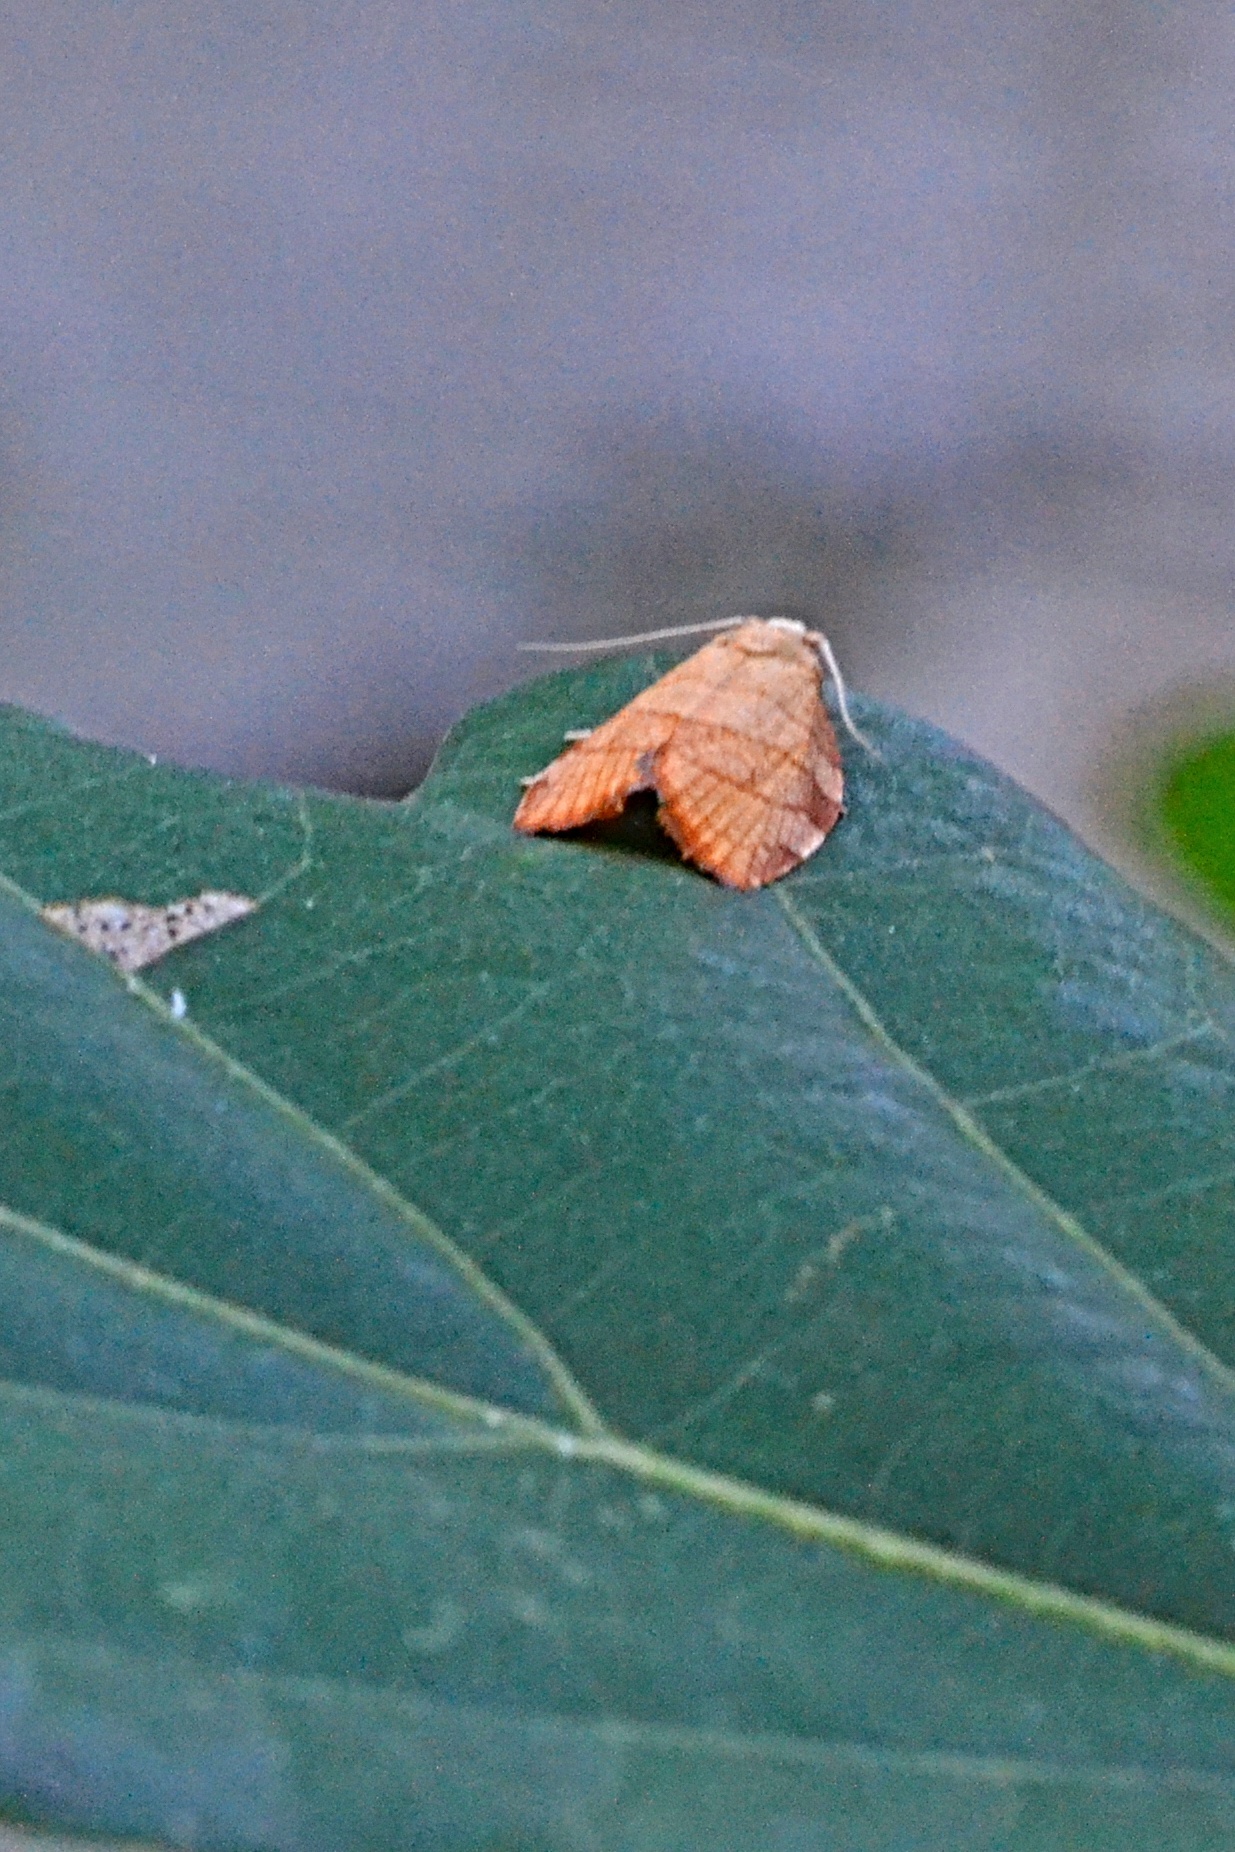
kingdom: Animalia
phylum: Arthropoda
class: Insecta
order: Lepidoptera
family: Tortricidae
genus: Pandemis
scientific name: Pandemis corylana
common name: Chequered fruit-tree tortrix
